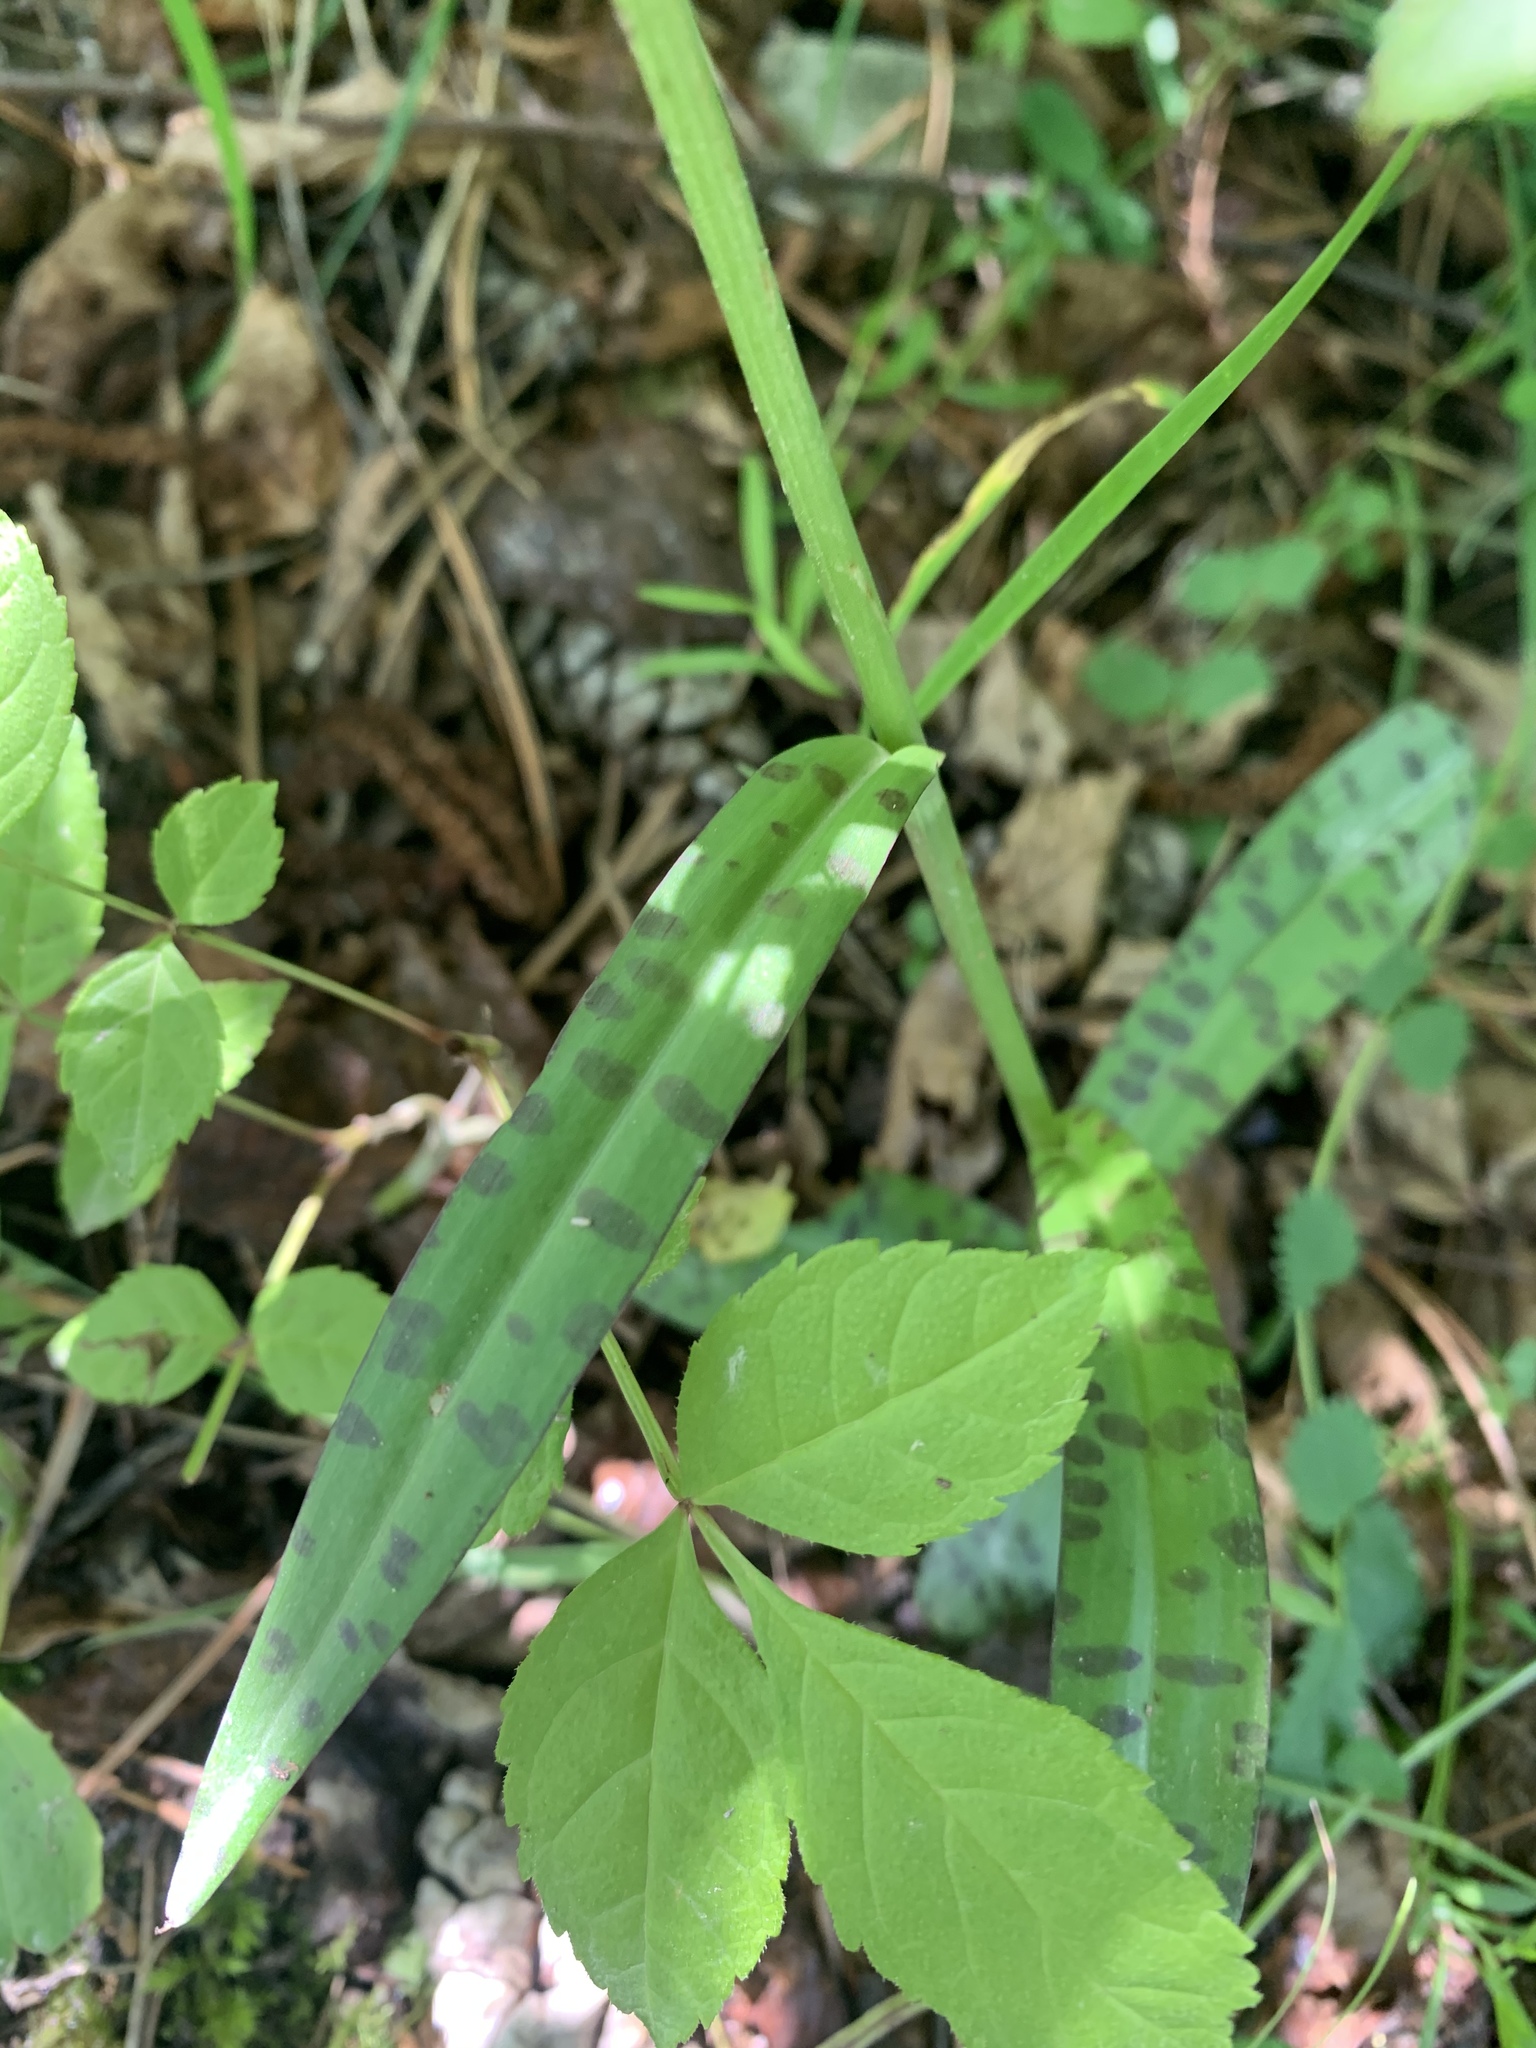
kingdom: Plantae
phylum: Tracheophyta
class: Liliopsida
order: Asparagales
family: Orchidaceae
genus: Dactylorhiza
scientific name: Dactylorhiza maculata
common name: Heath spotted-orchid
